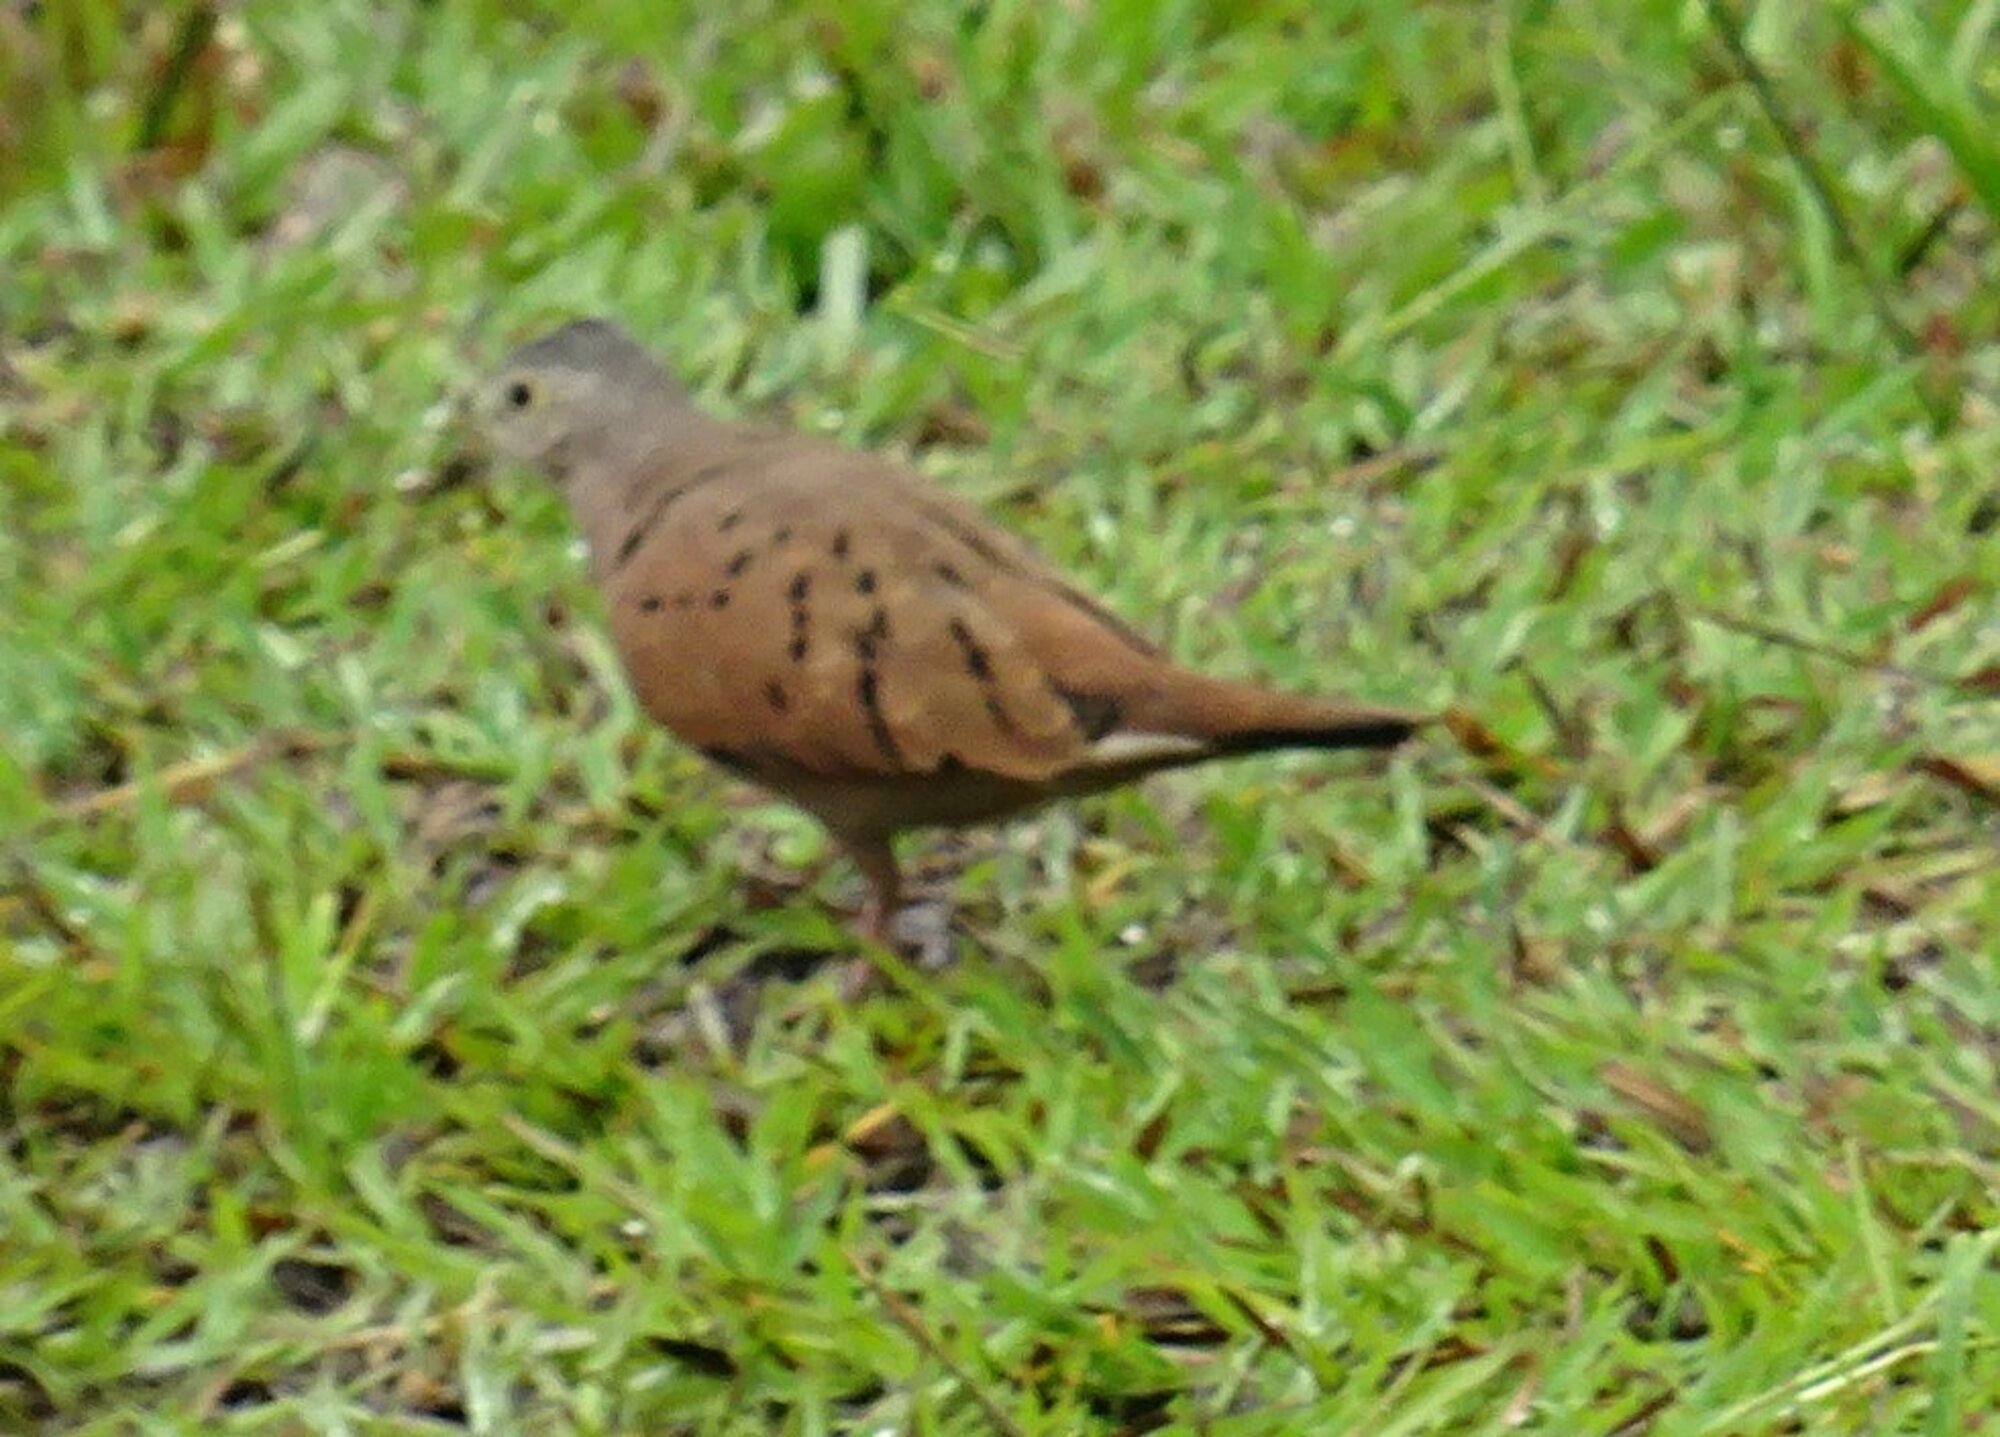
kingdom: Animalia
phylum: Chordata
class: Aves
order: Columbiformes
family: Columbidae
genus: Columbina
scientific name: Columbina talpacoti
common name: Ruddy ground dove
